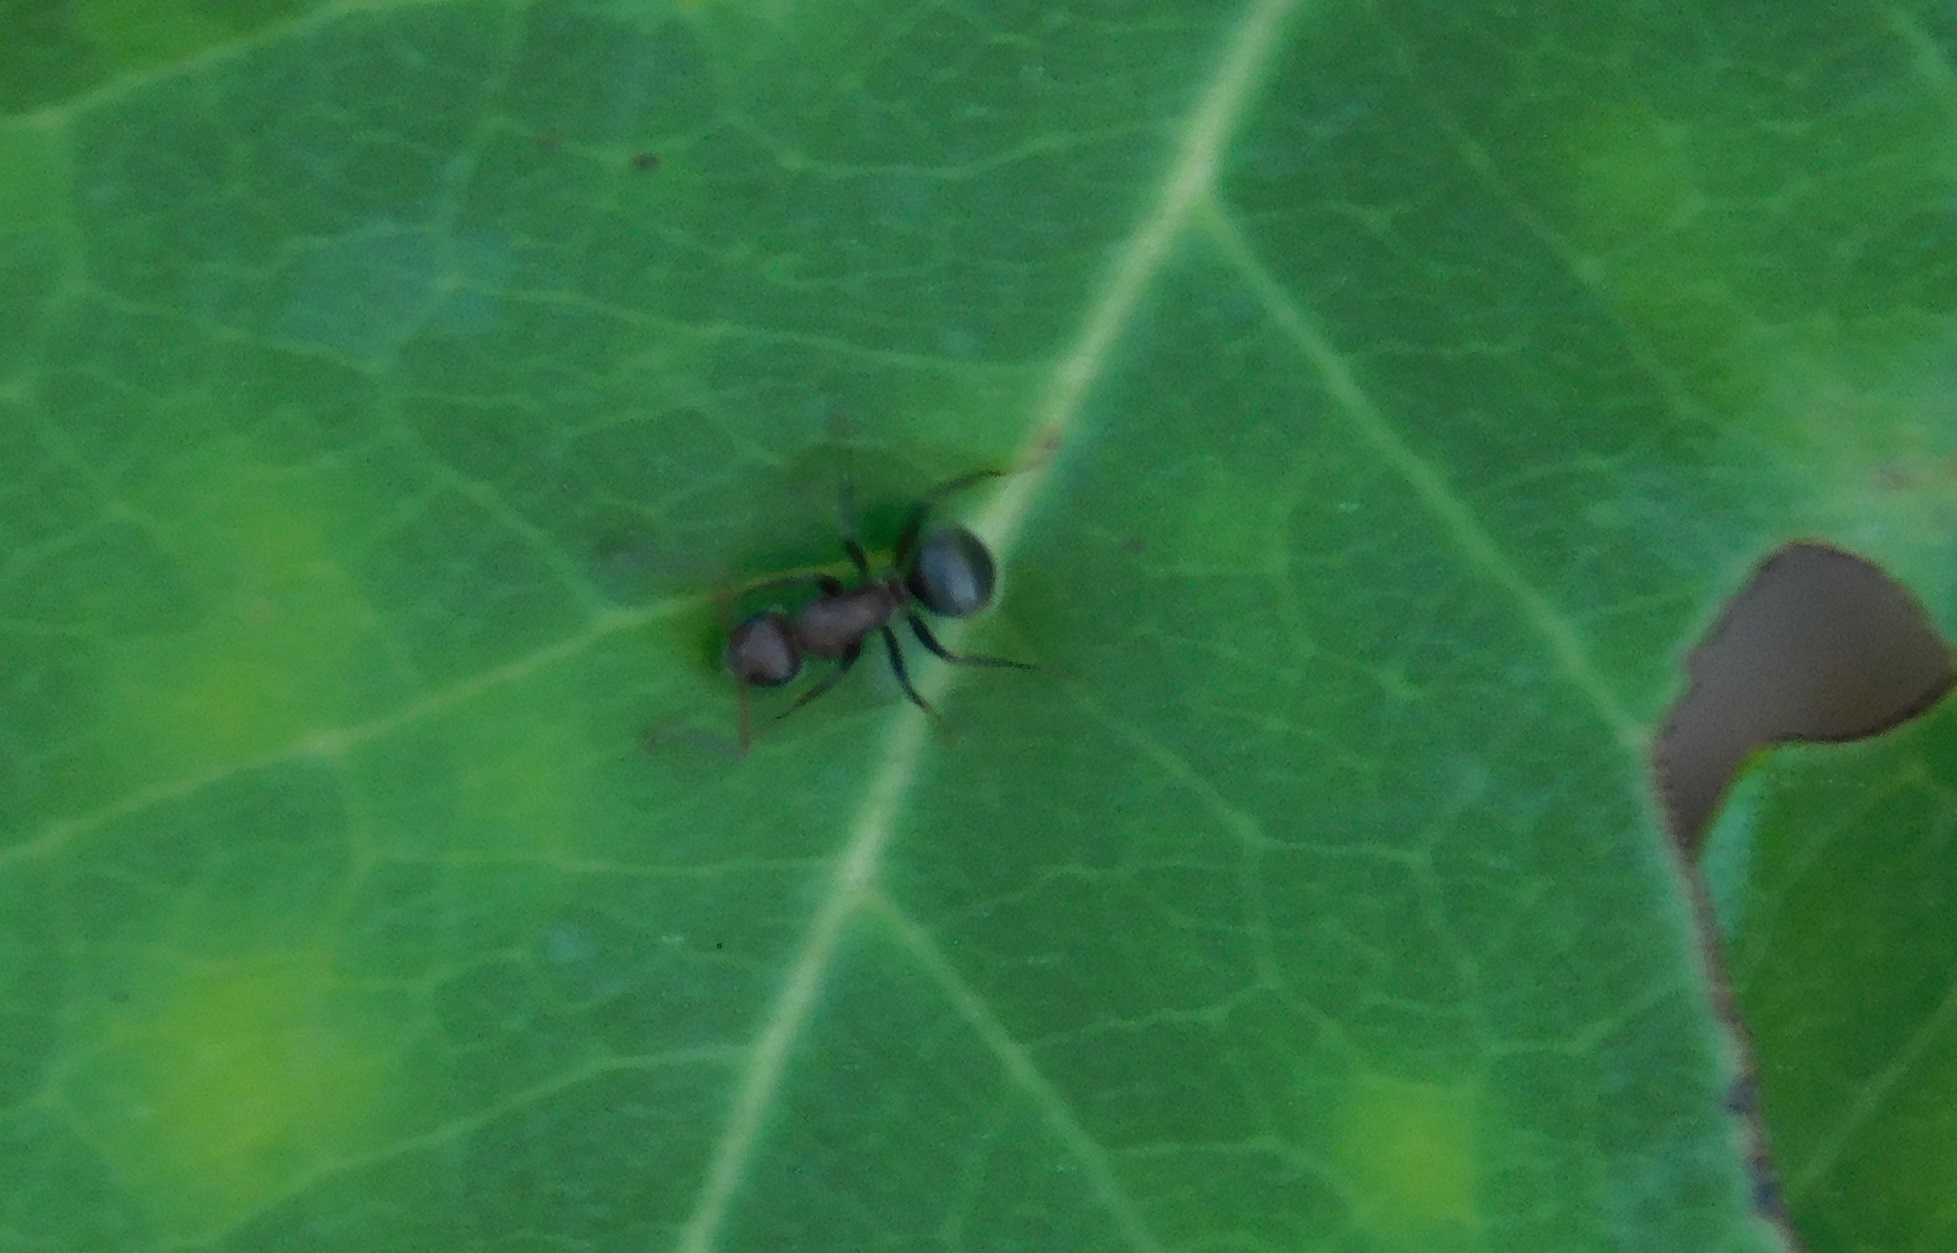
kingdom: Animalia
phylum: Arthropoda
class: Insecta
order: Hymenoptera
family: Formicidae
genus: Camponotus
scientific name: Camponotus planatus
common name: Compact carpenter ant
